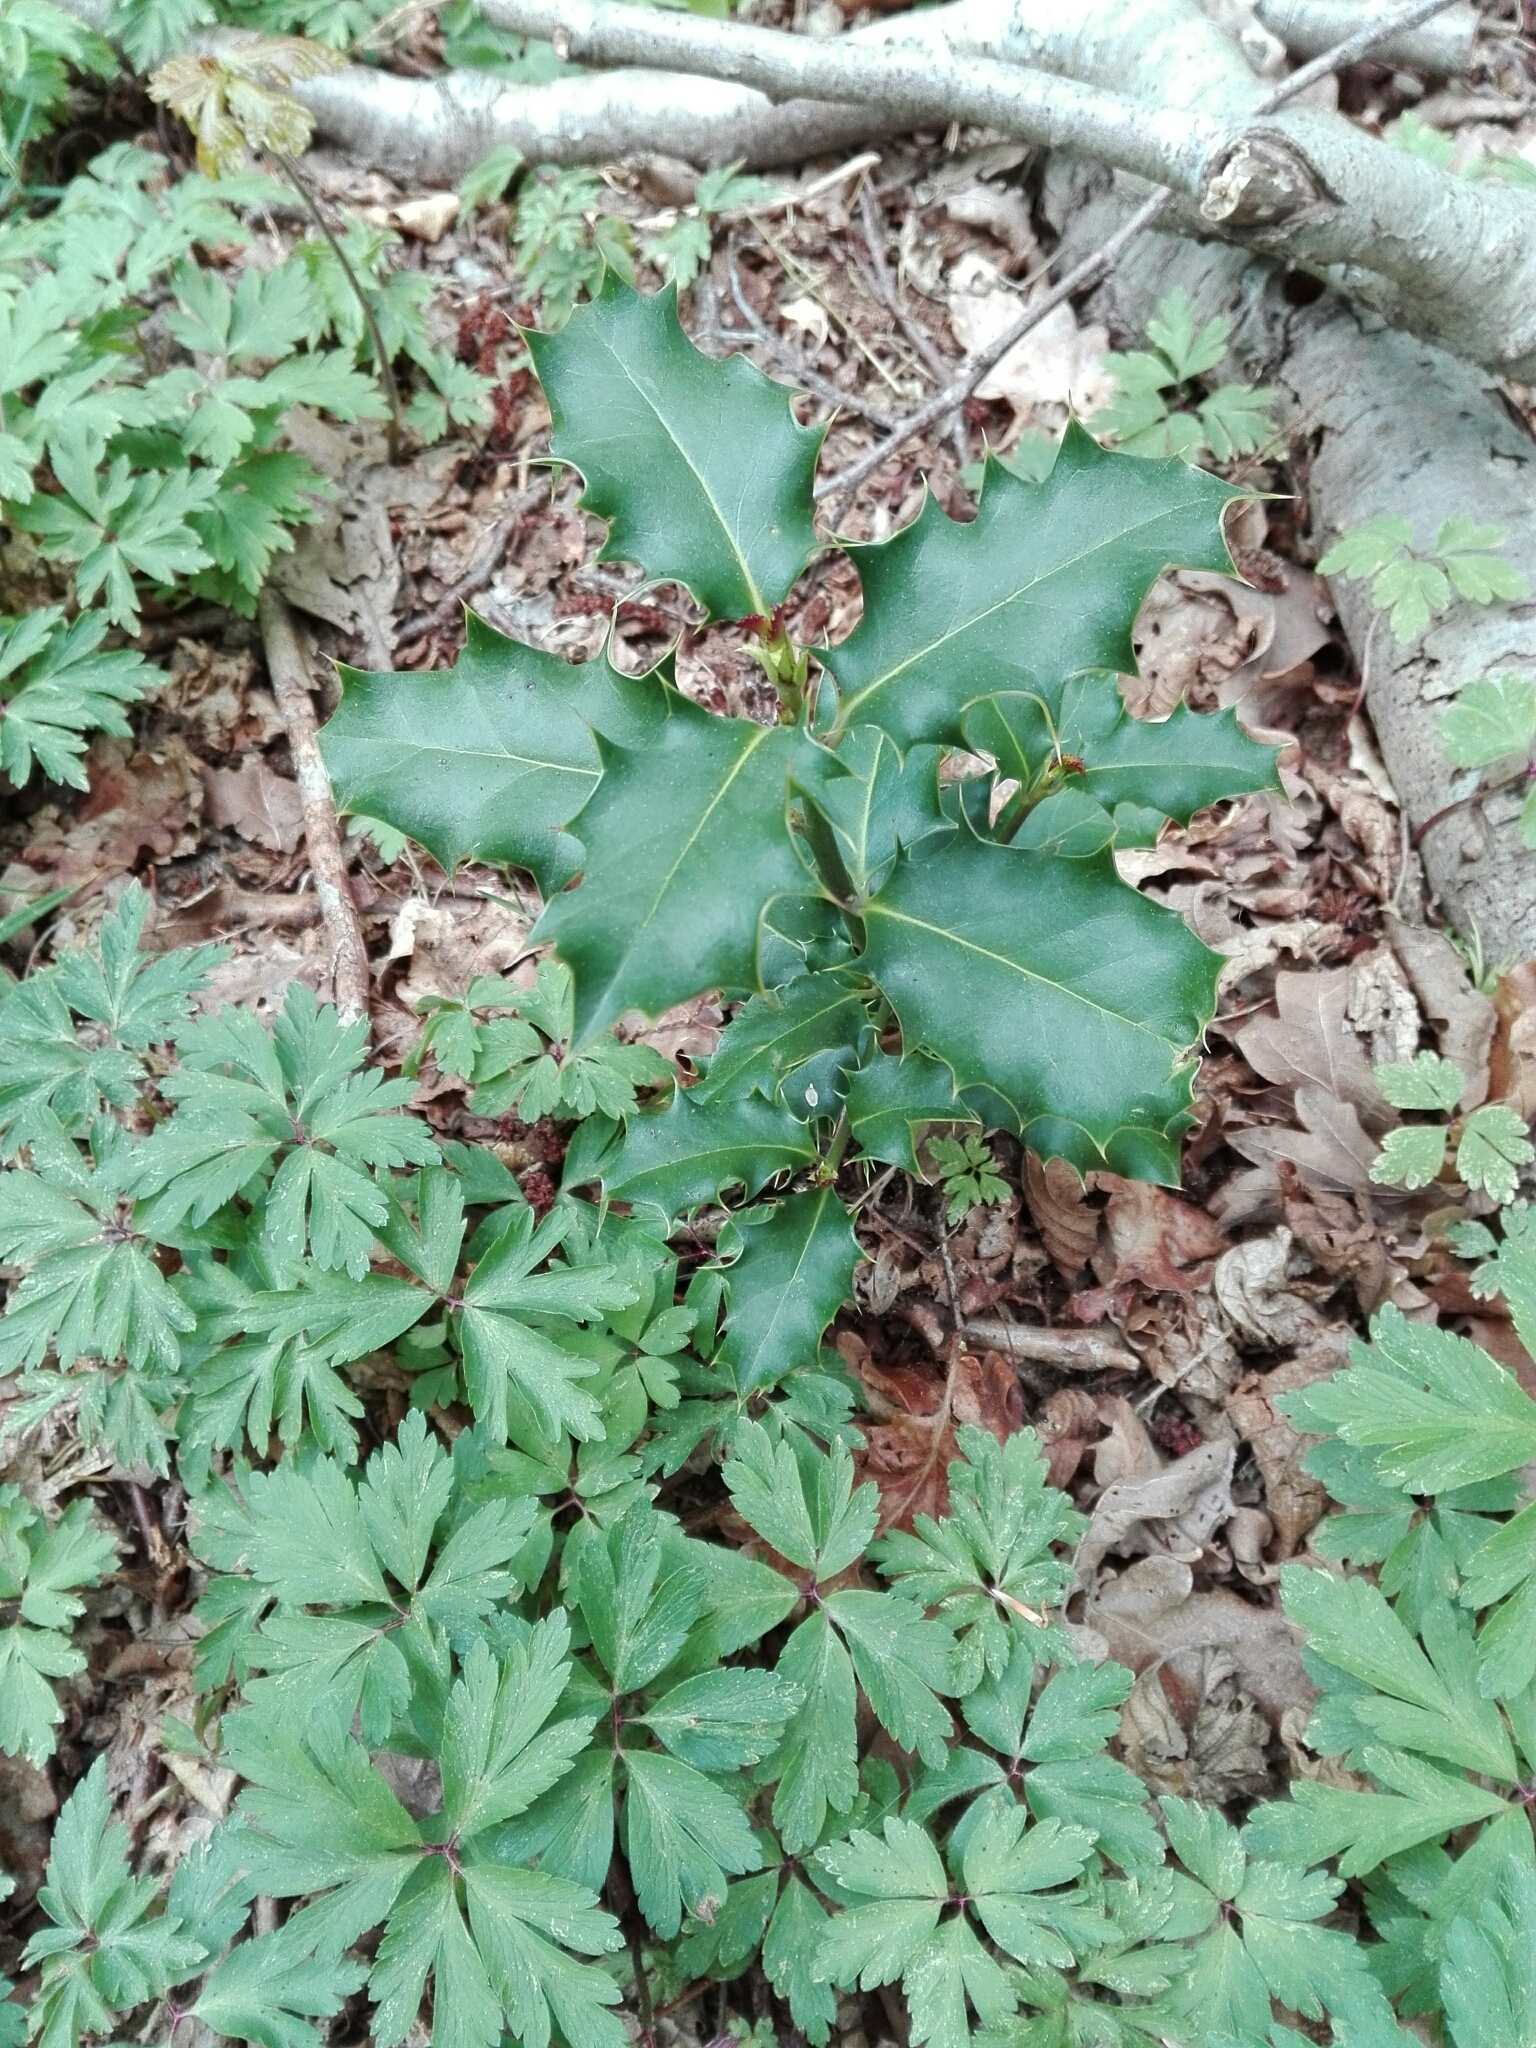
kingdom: Plantae
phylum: Tracheophyta
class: Magnoliopsida
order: Aquifoliales
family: Aquifoliaceae
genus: Ilex
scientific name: Ilex aquifolium
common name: English holly
